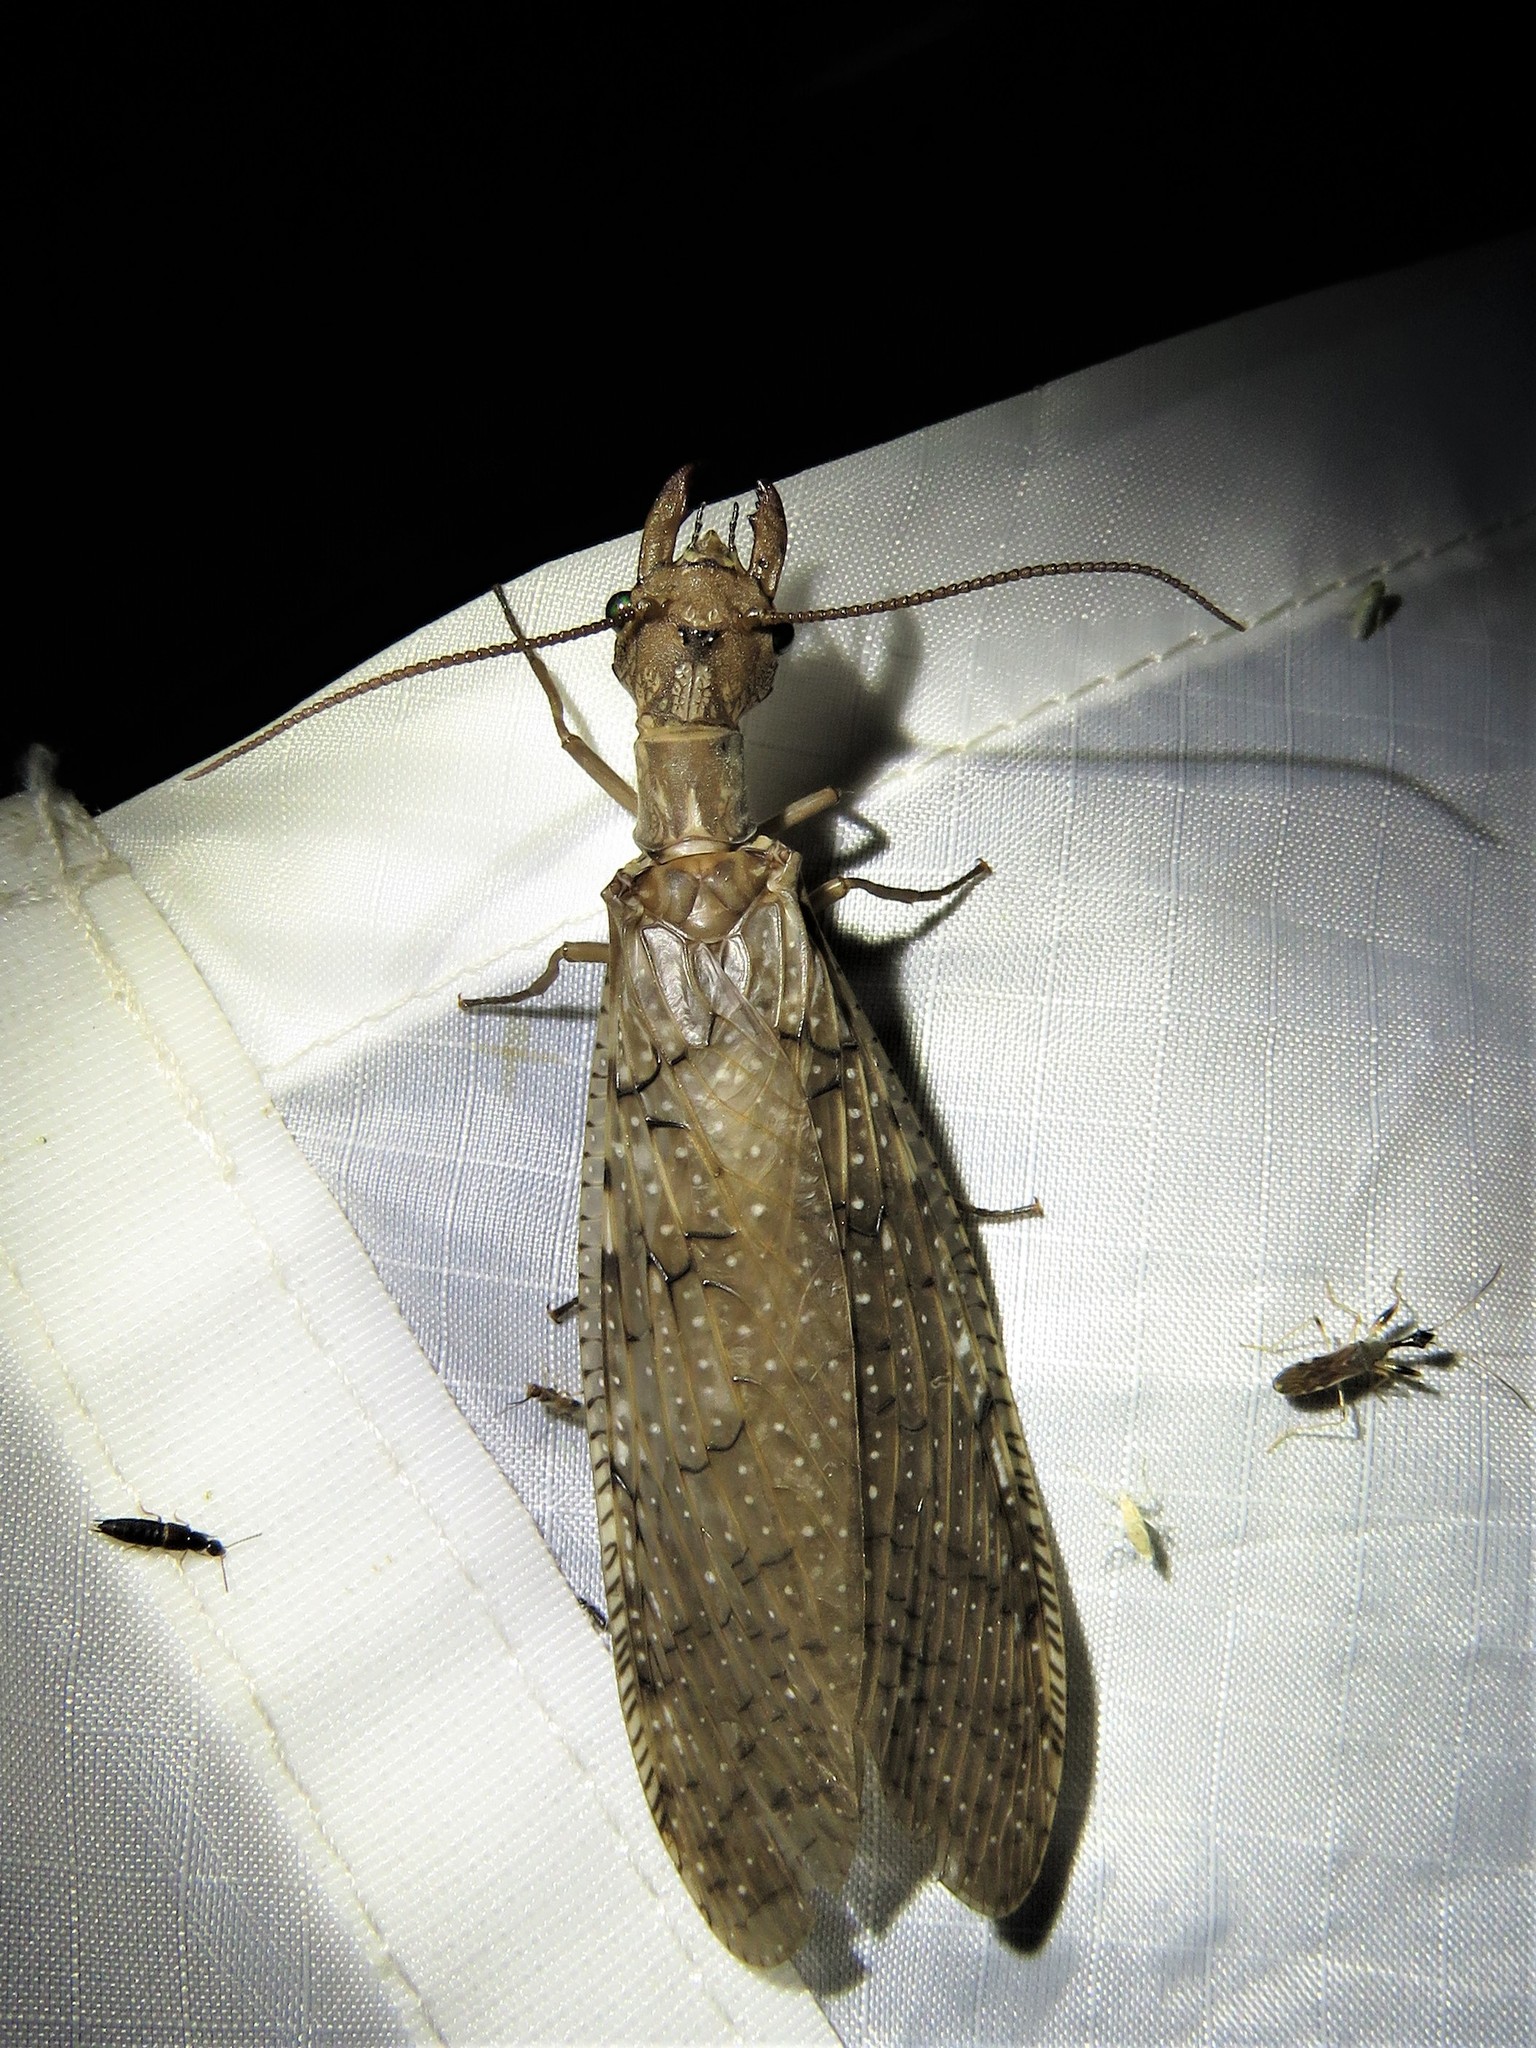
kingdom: Animalia
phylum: Arthropoda
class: Insecta
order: Megaloptera
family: Corydalidae
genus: Corydalus
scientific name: Corydalus cornutus
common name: Dobsonfly
